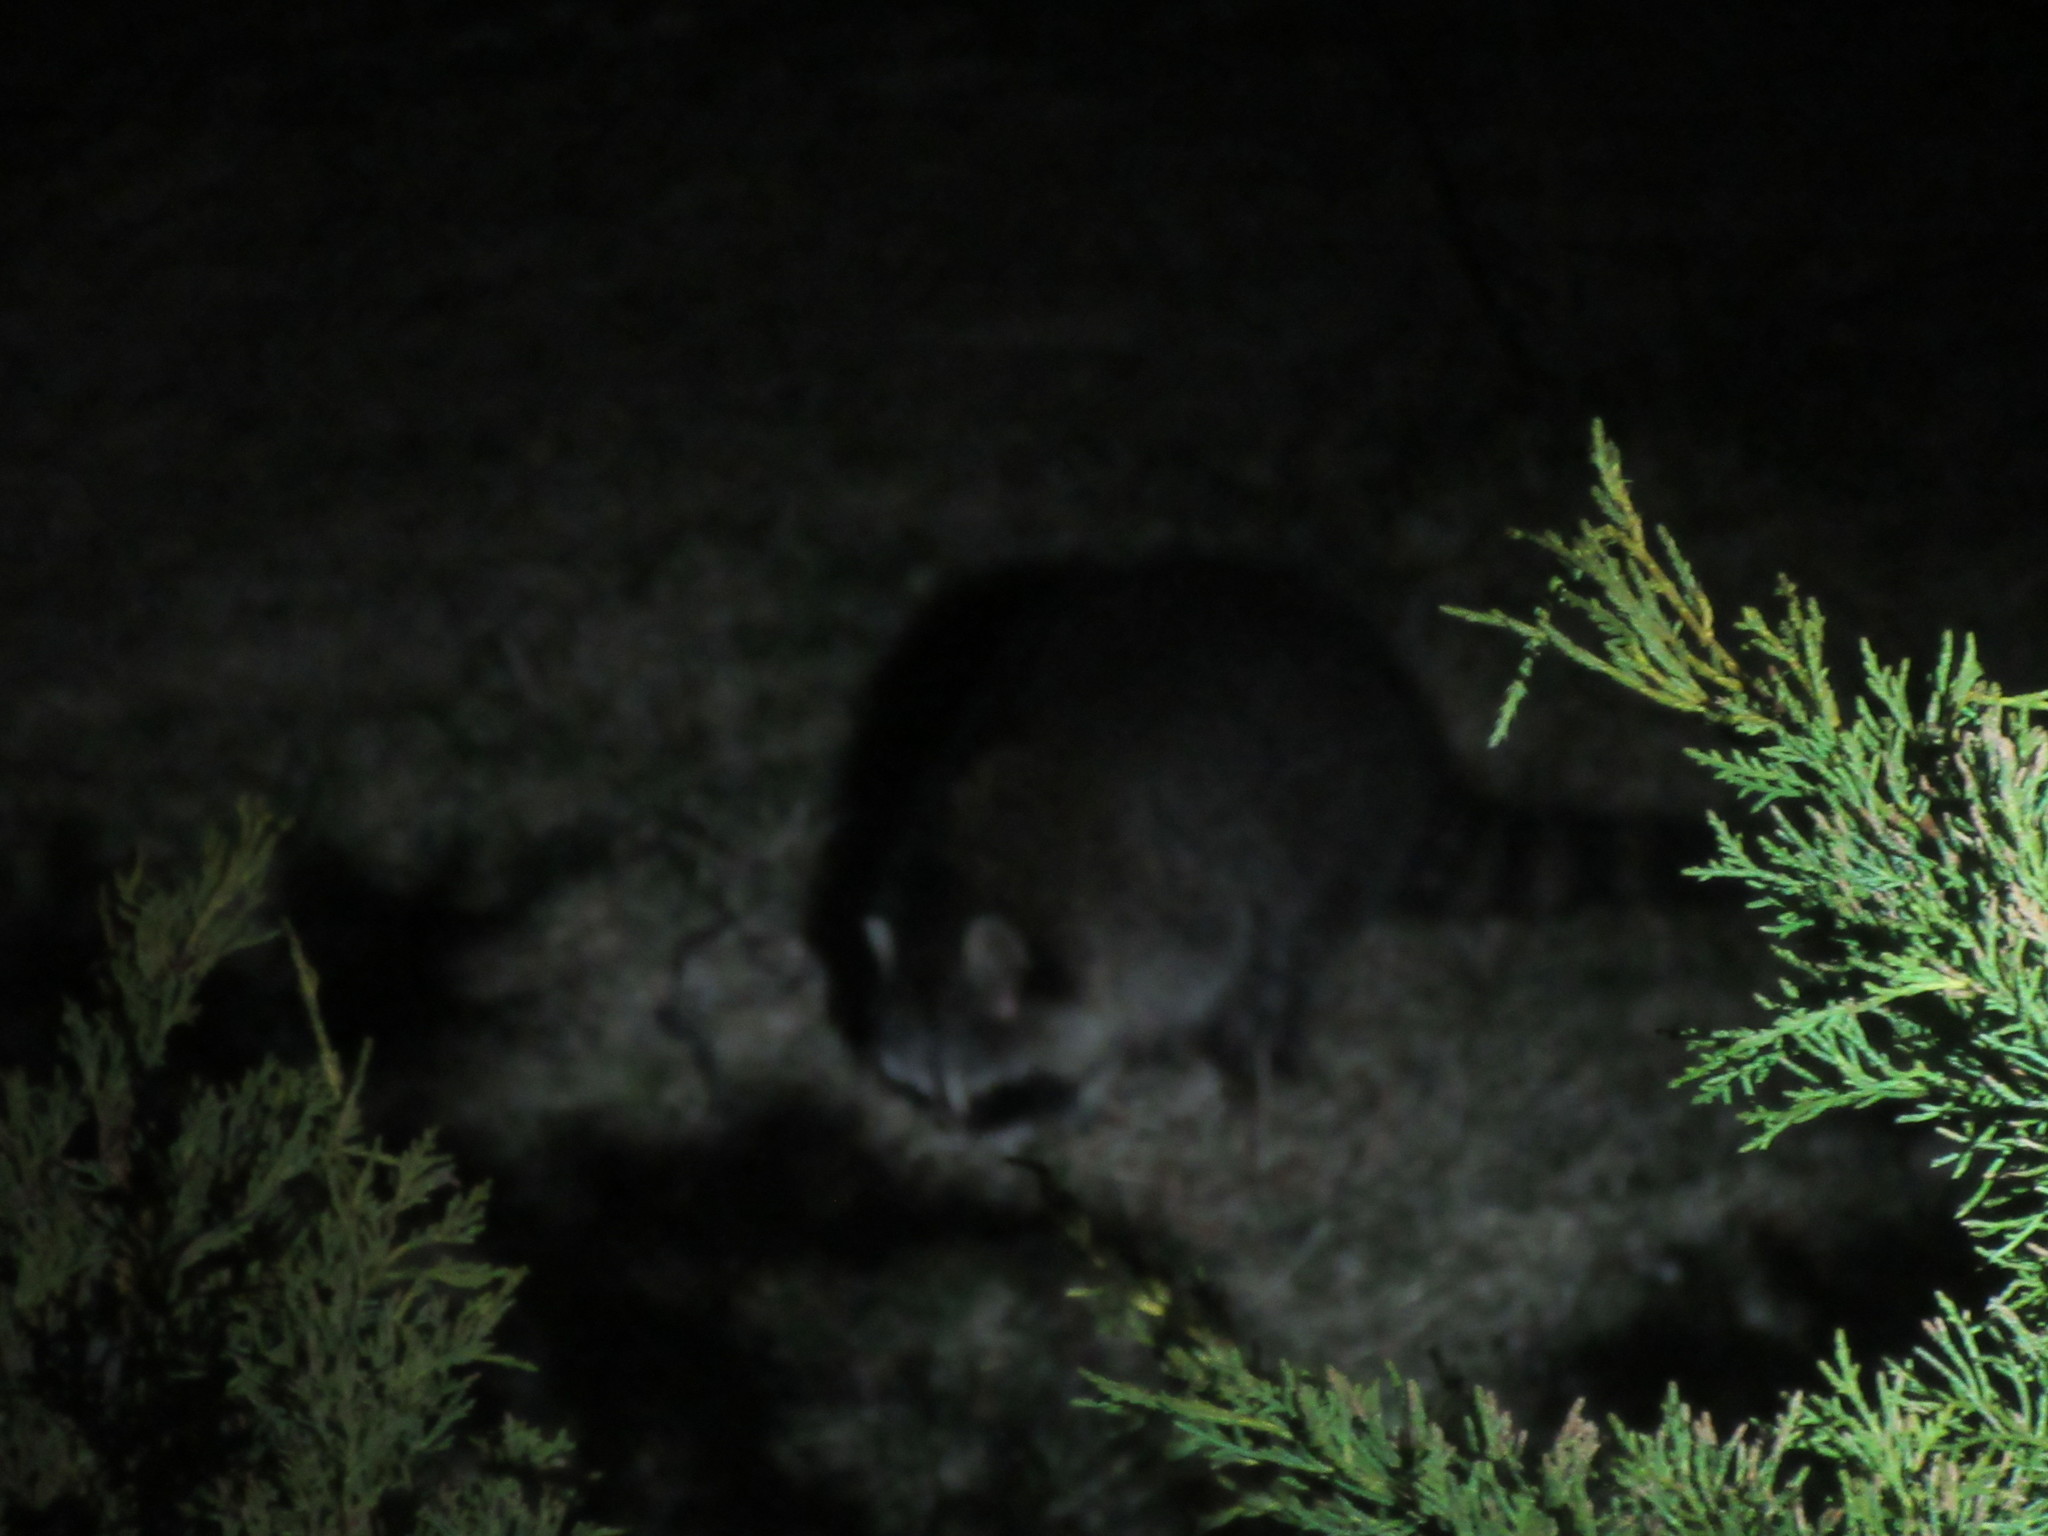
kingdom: Animalia
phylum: Chordata
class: Mammalia
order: Carnivora
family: Procyonidae
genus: Procyon
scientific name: Procyon lotor
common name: Raccoon
